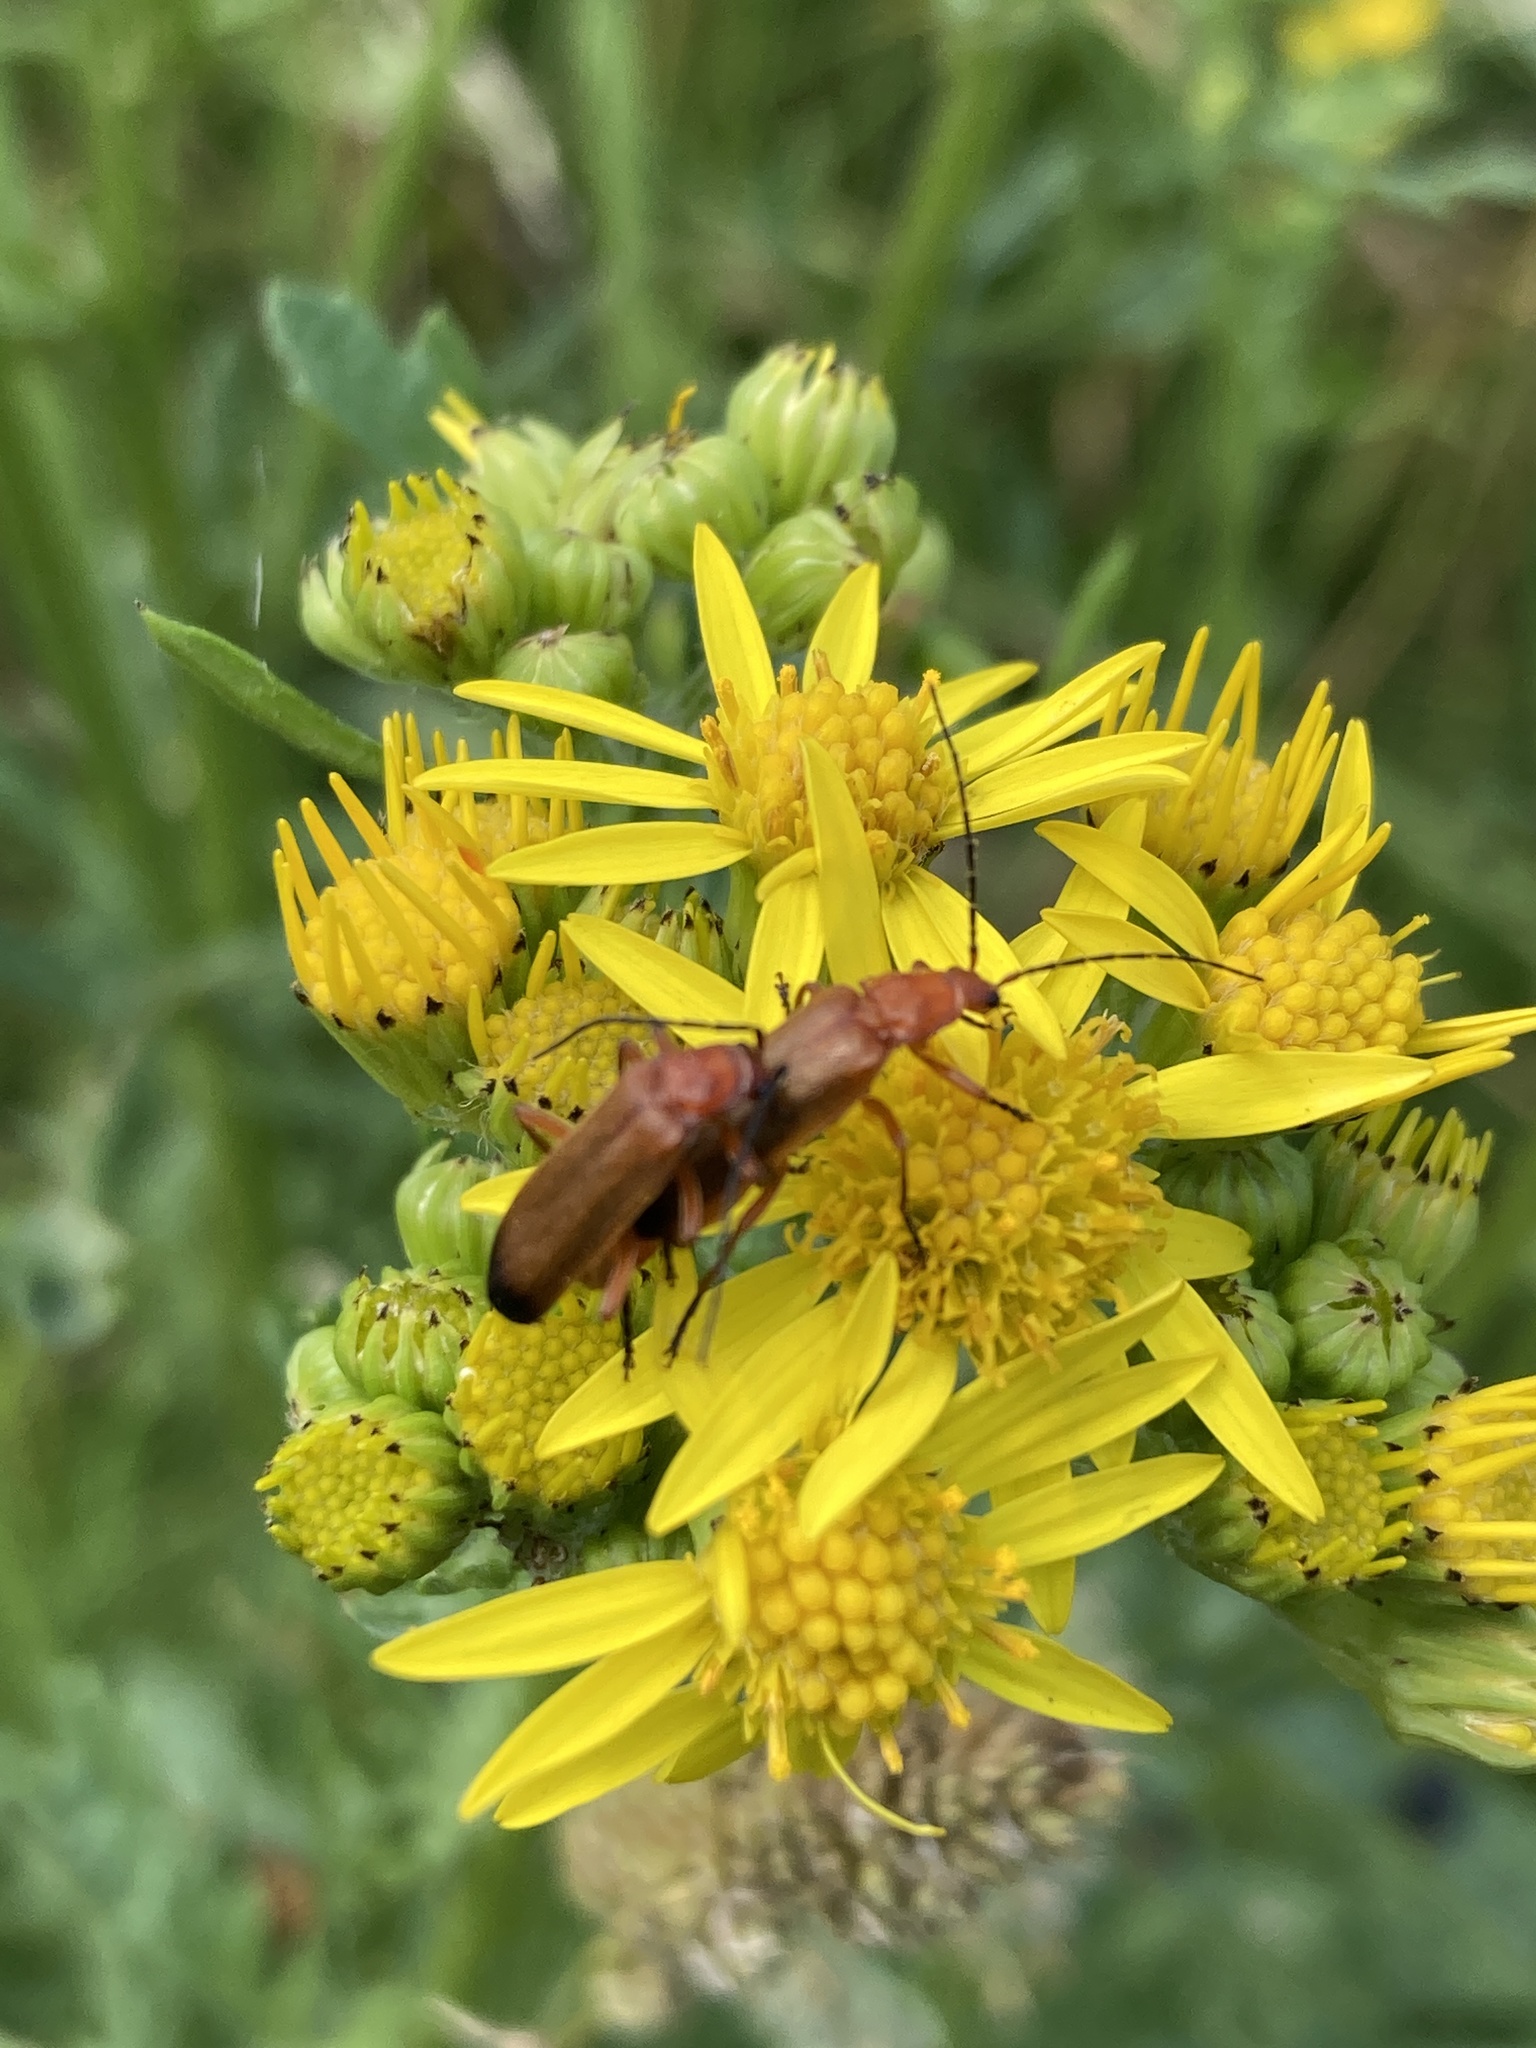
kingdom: Animalia
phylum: Arthropoda
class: Insecta
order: Coleoptera
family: Cantharidae
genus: Rhagonycha
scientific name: Rhagonycha fulva
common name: Common red soldier beetle
